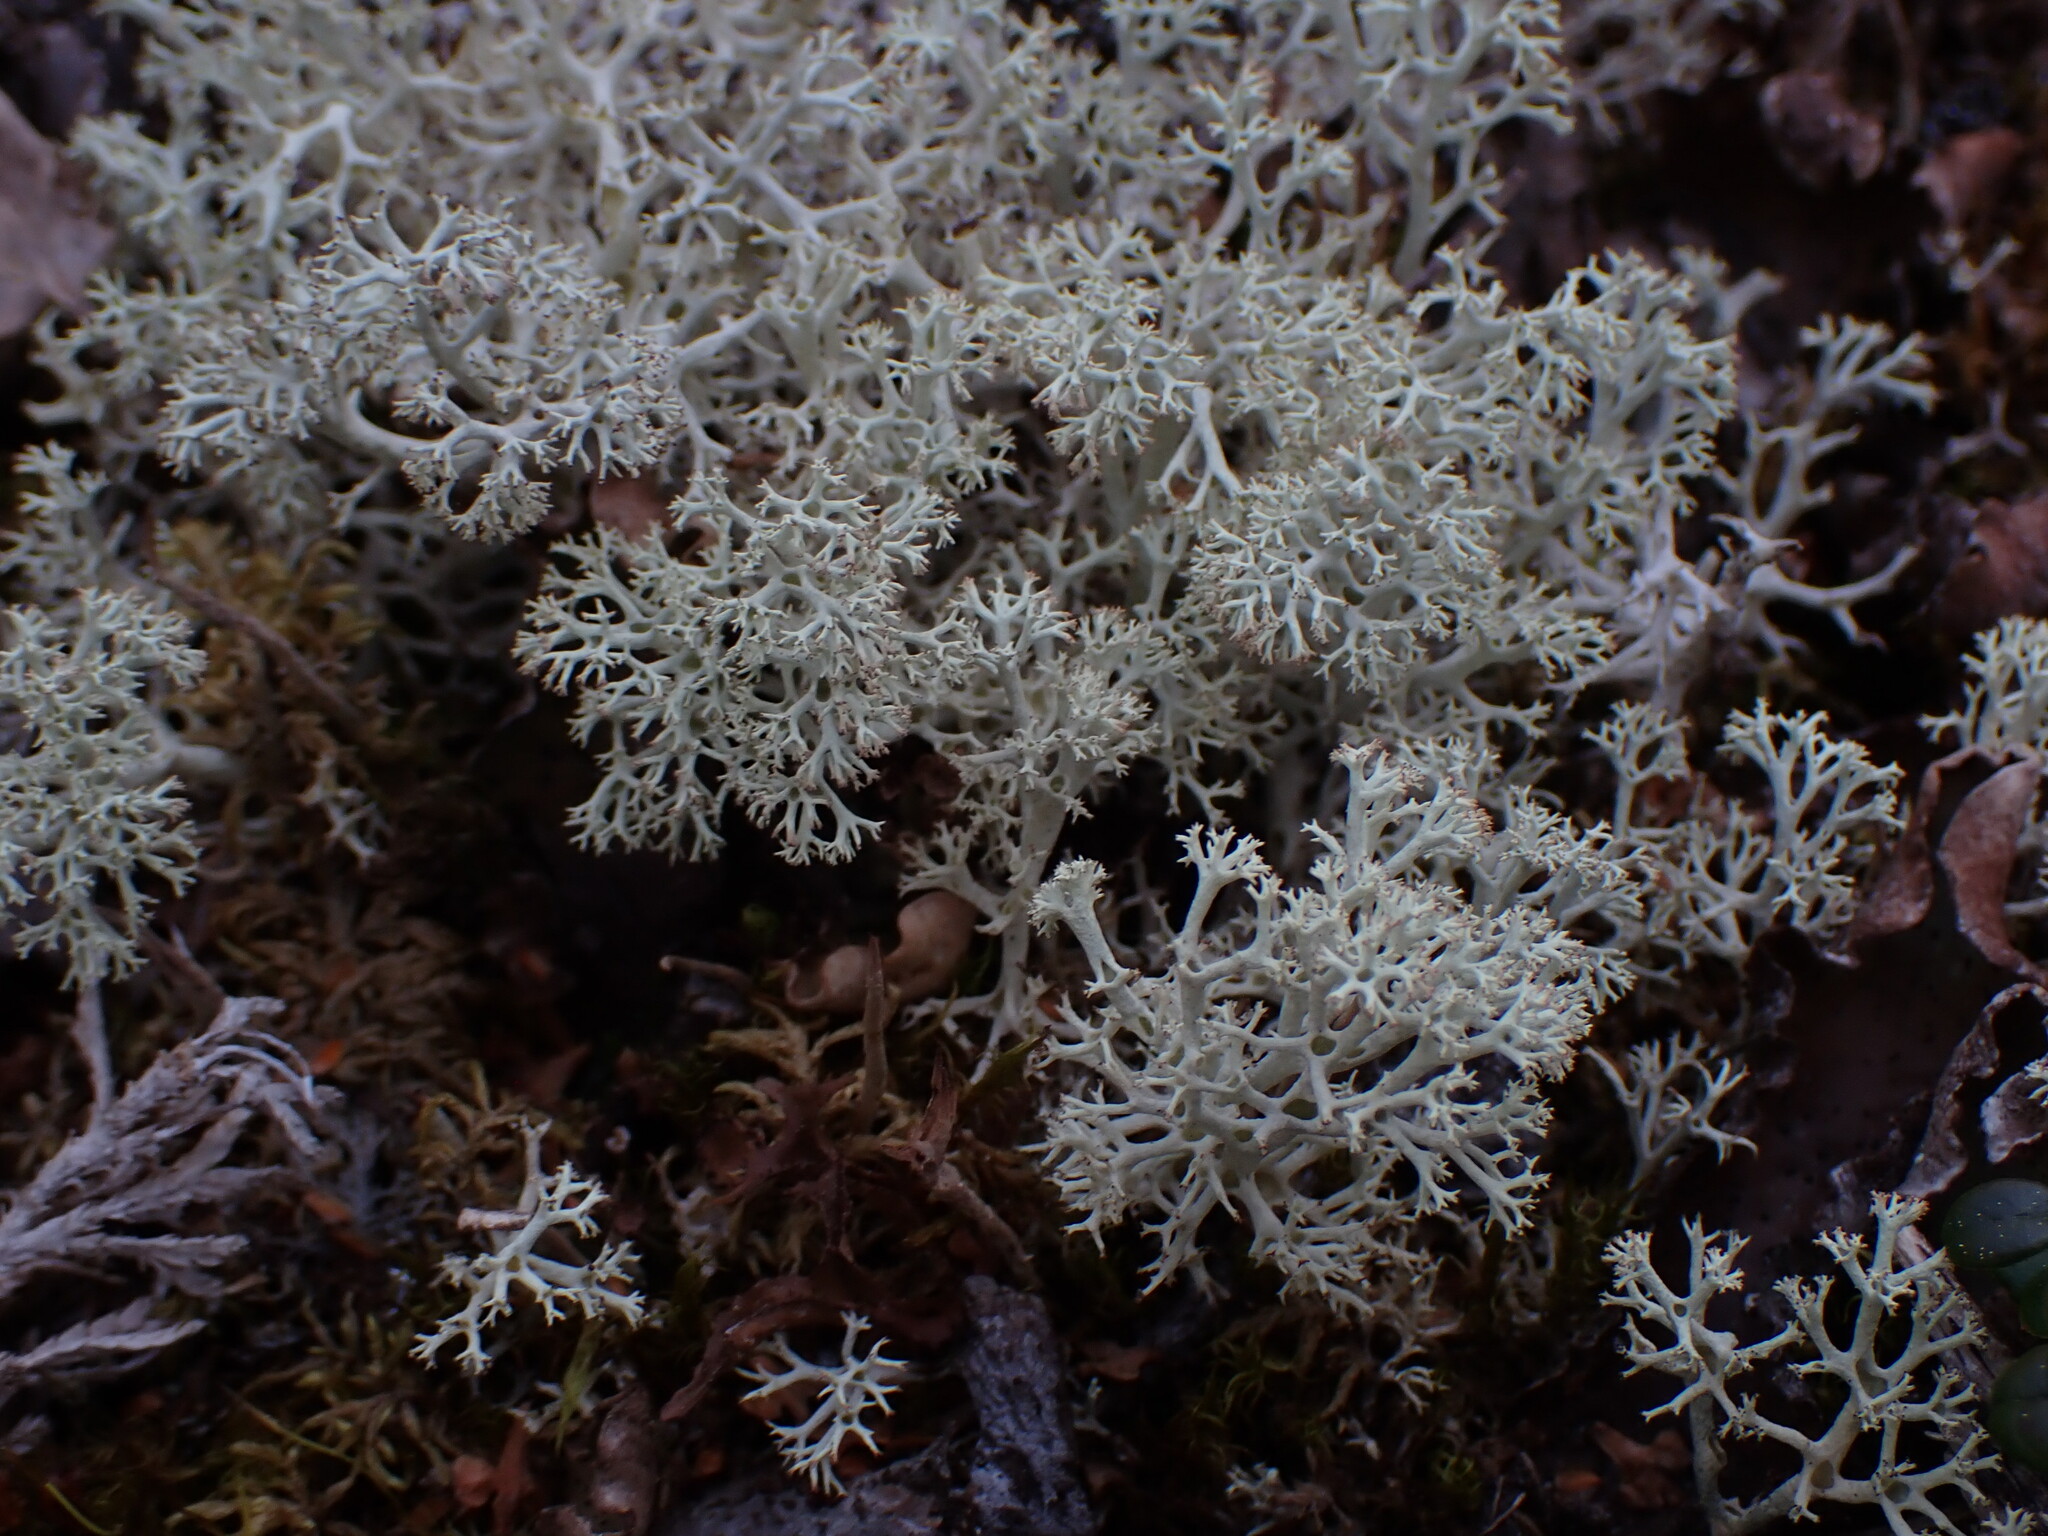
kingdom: Fungi
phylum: Ascomycota
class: Lecanoromycetes
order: Lecanorales
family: Cladoniaceae
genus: Cladonia
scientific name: Cladonia stellaris
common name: Star-tipped reindeer lichen
